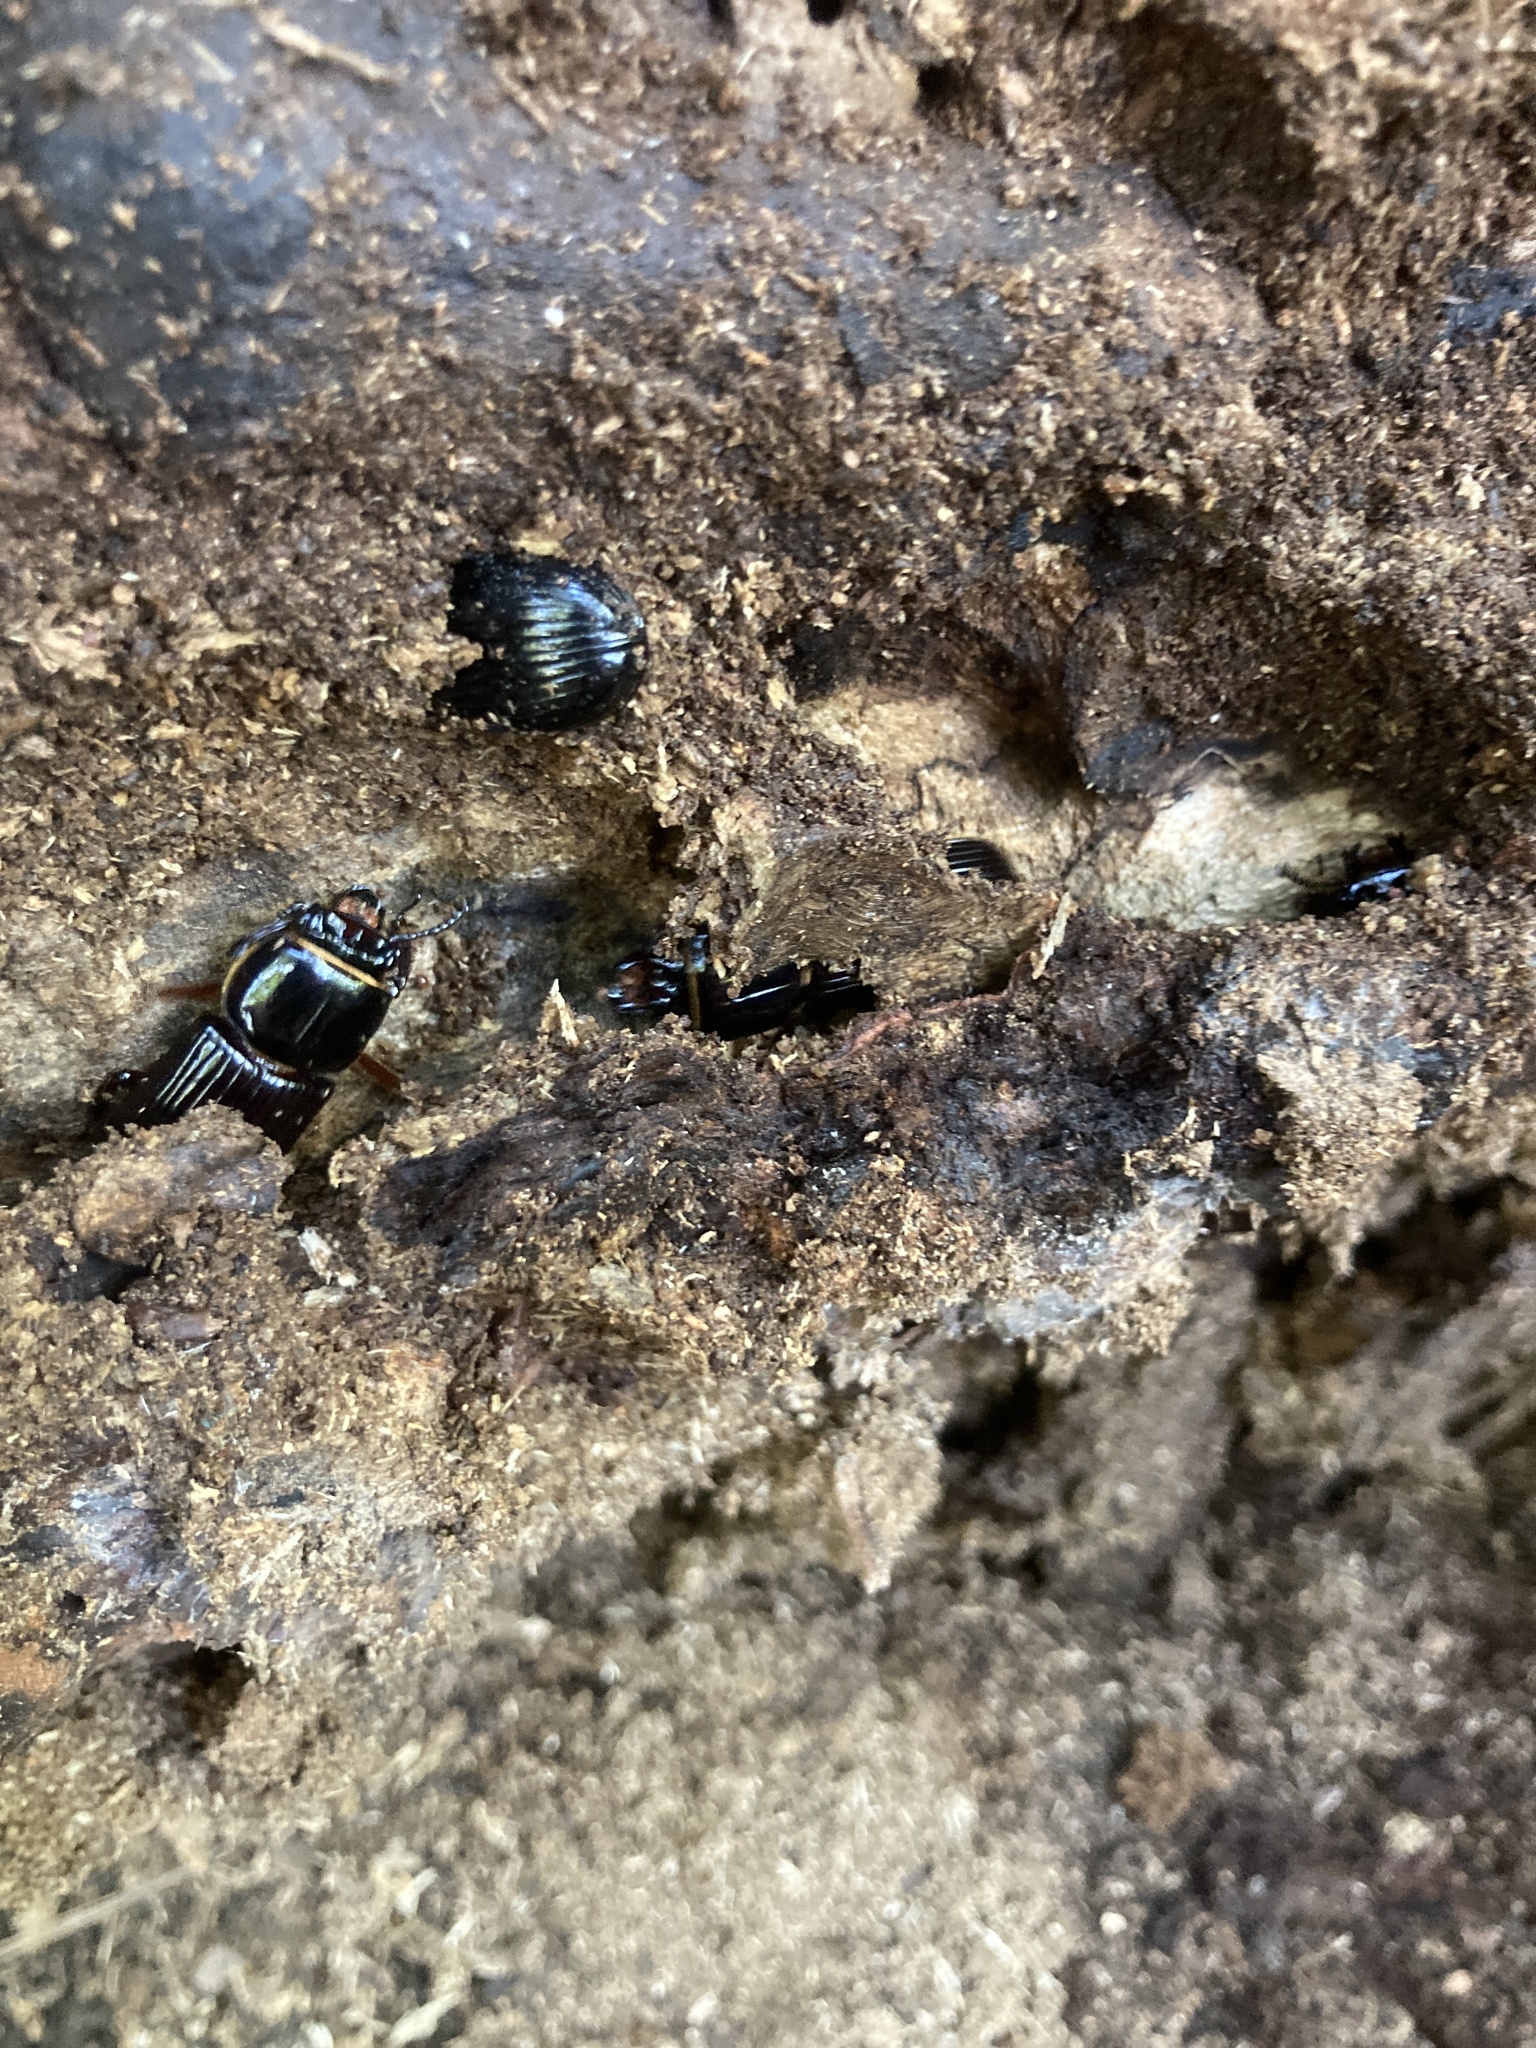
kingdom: Animalia
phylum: Arthropoda
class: Insecta
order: Coleoptera
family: Passalidae
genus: Odontotaenius
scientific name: Odontotaenius disjunctus
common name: Patent leather beetle
